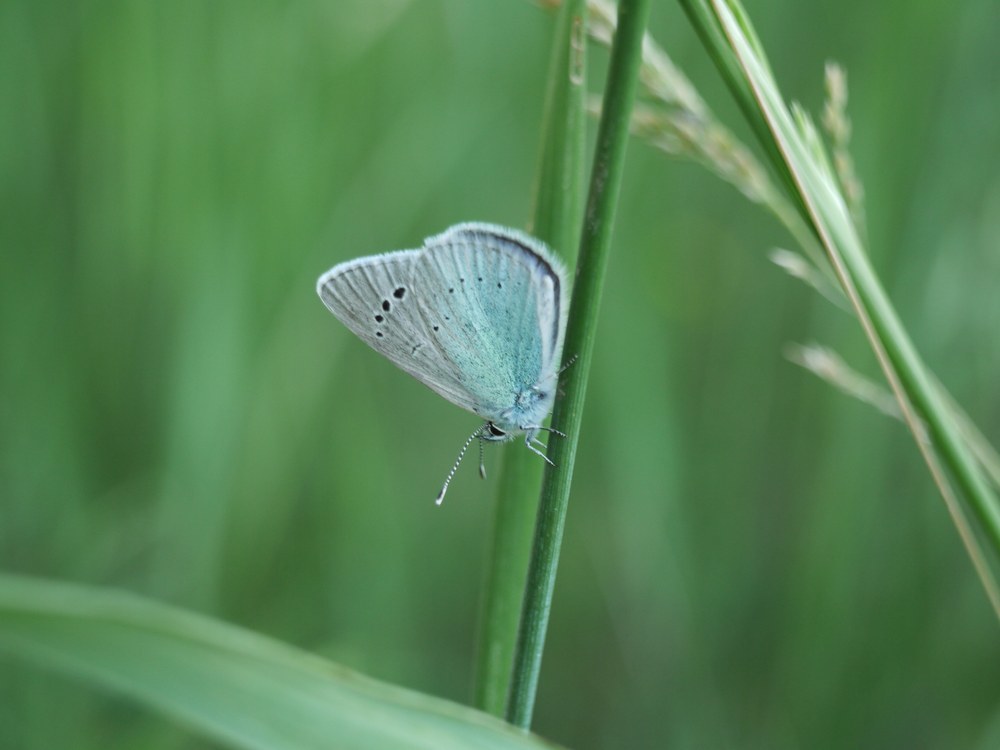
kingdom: Animalia
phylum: Arthropoda
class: Insecta
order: Lepidoptera
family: Lycaenidae
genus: Glaucopsyche
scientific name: Glaucopsyche alexis
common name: Green-underside blue
